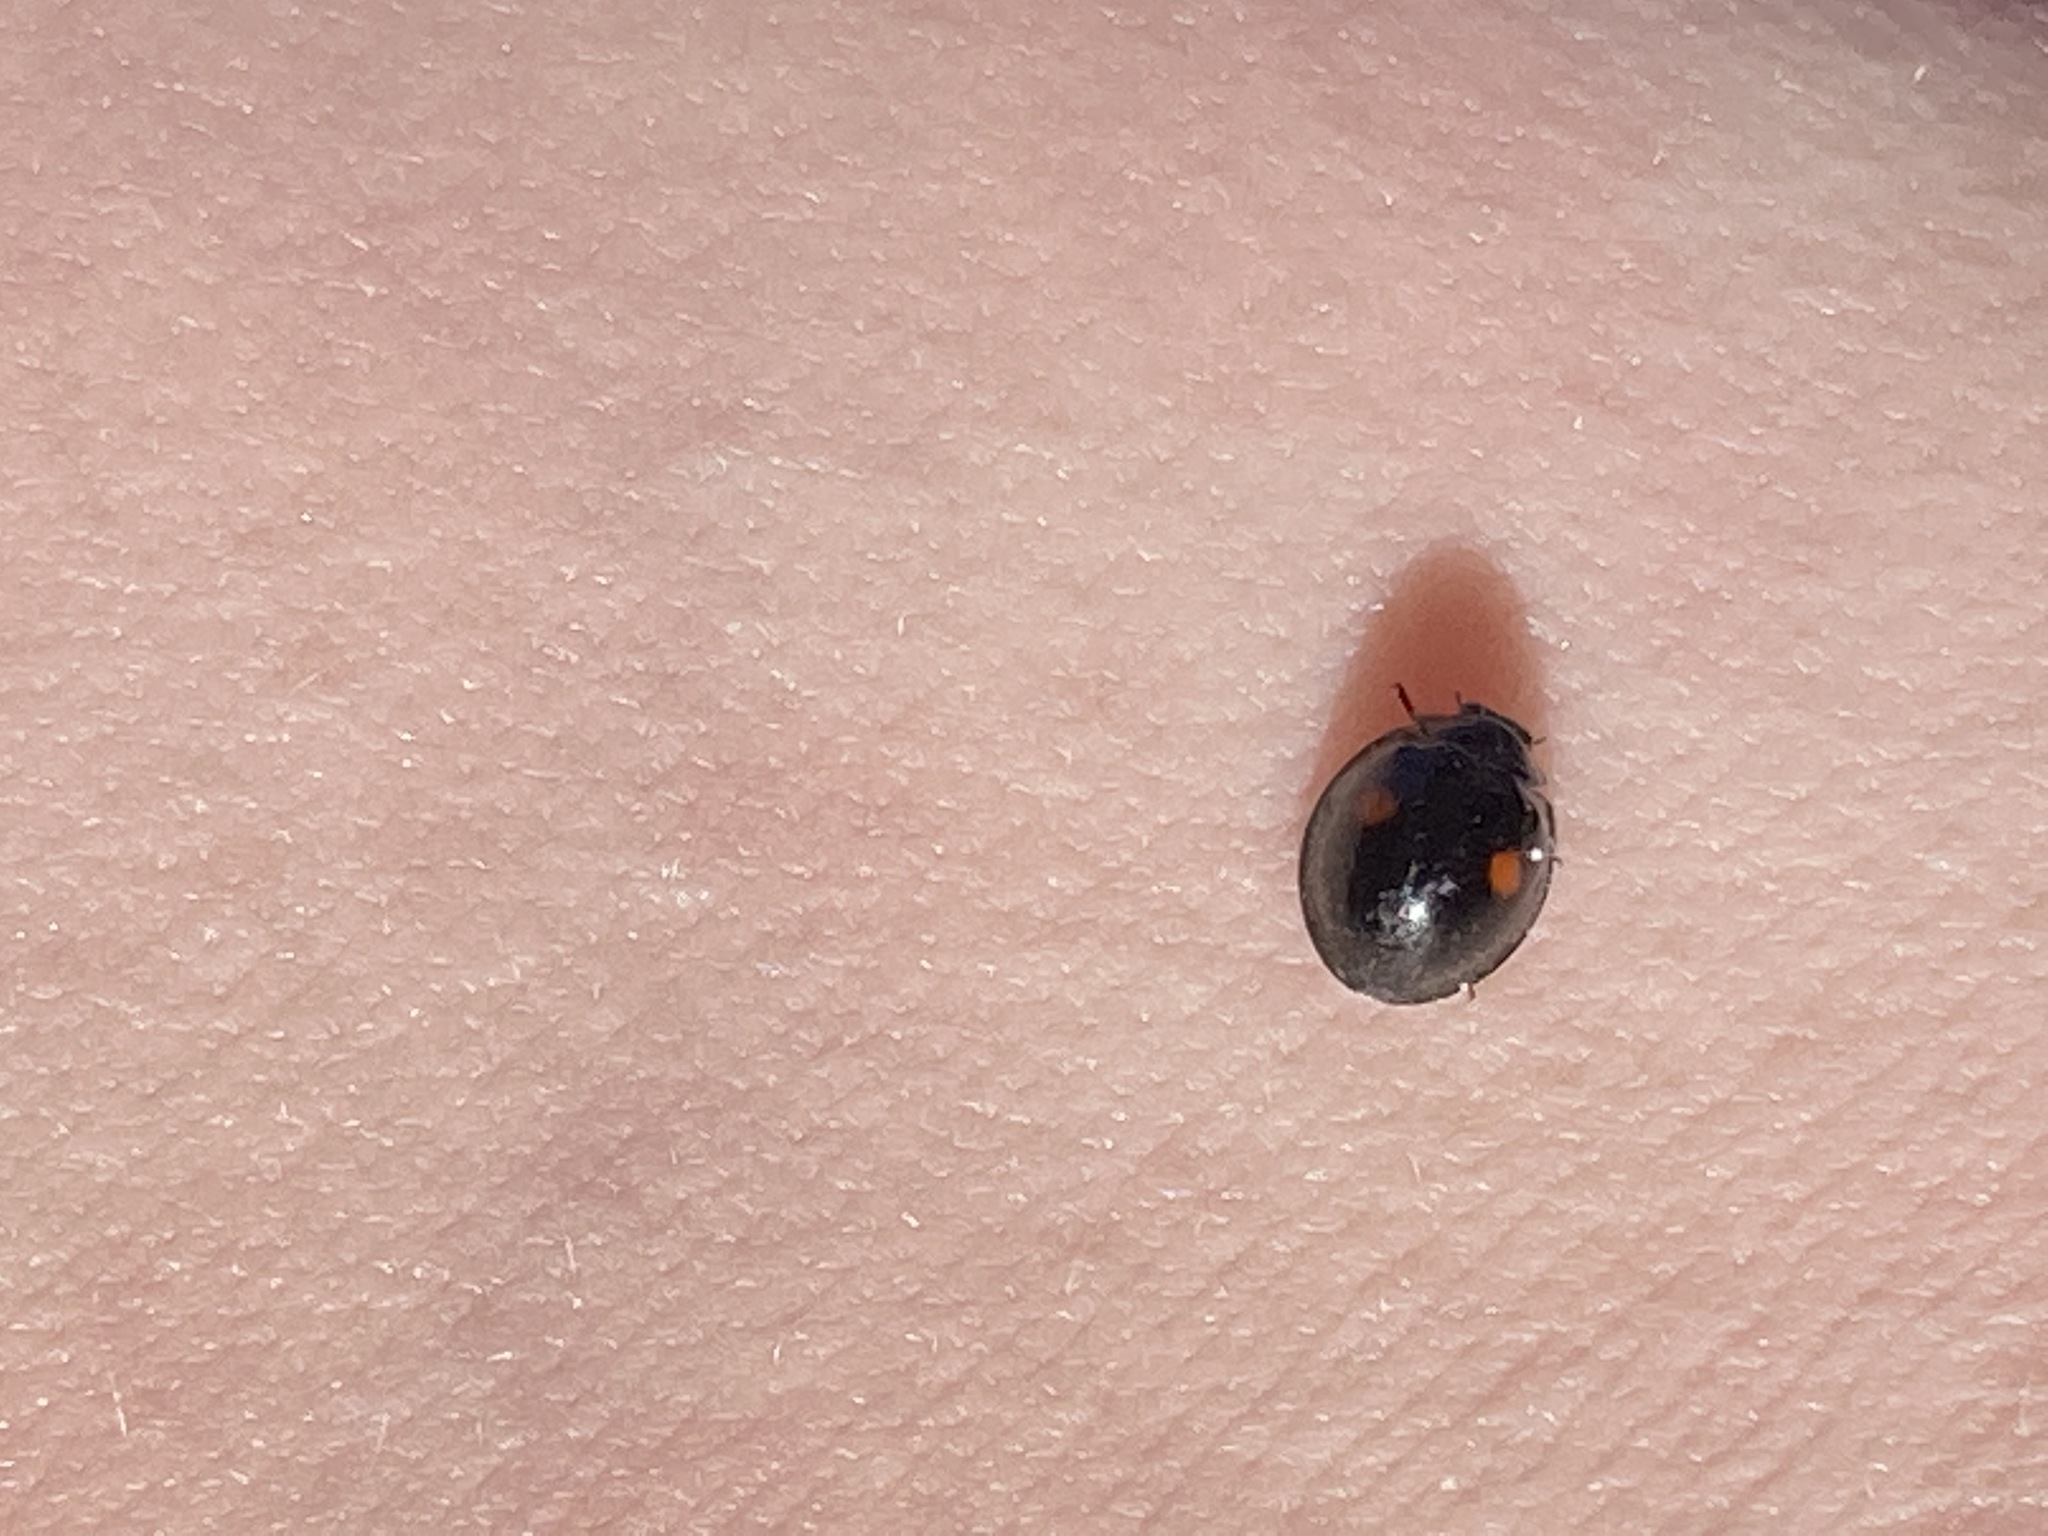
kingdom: Animalia
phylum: Arthropoda
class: Insecta
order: Coleoptera
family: Coccinellidae
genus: Chilocorus
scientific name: Chilocorus stigma
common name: Twicestabbed lady beetle
